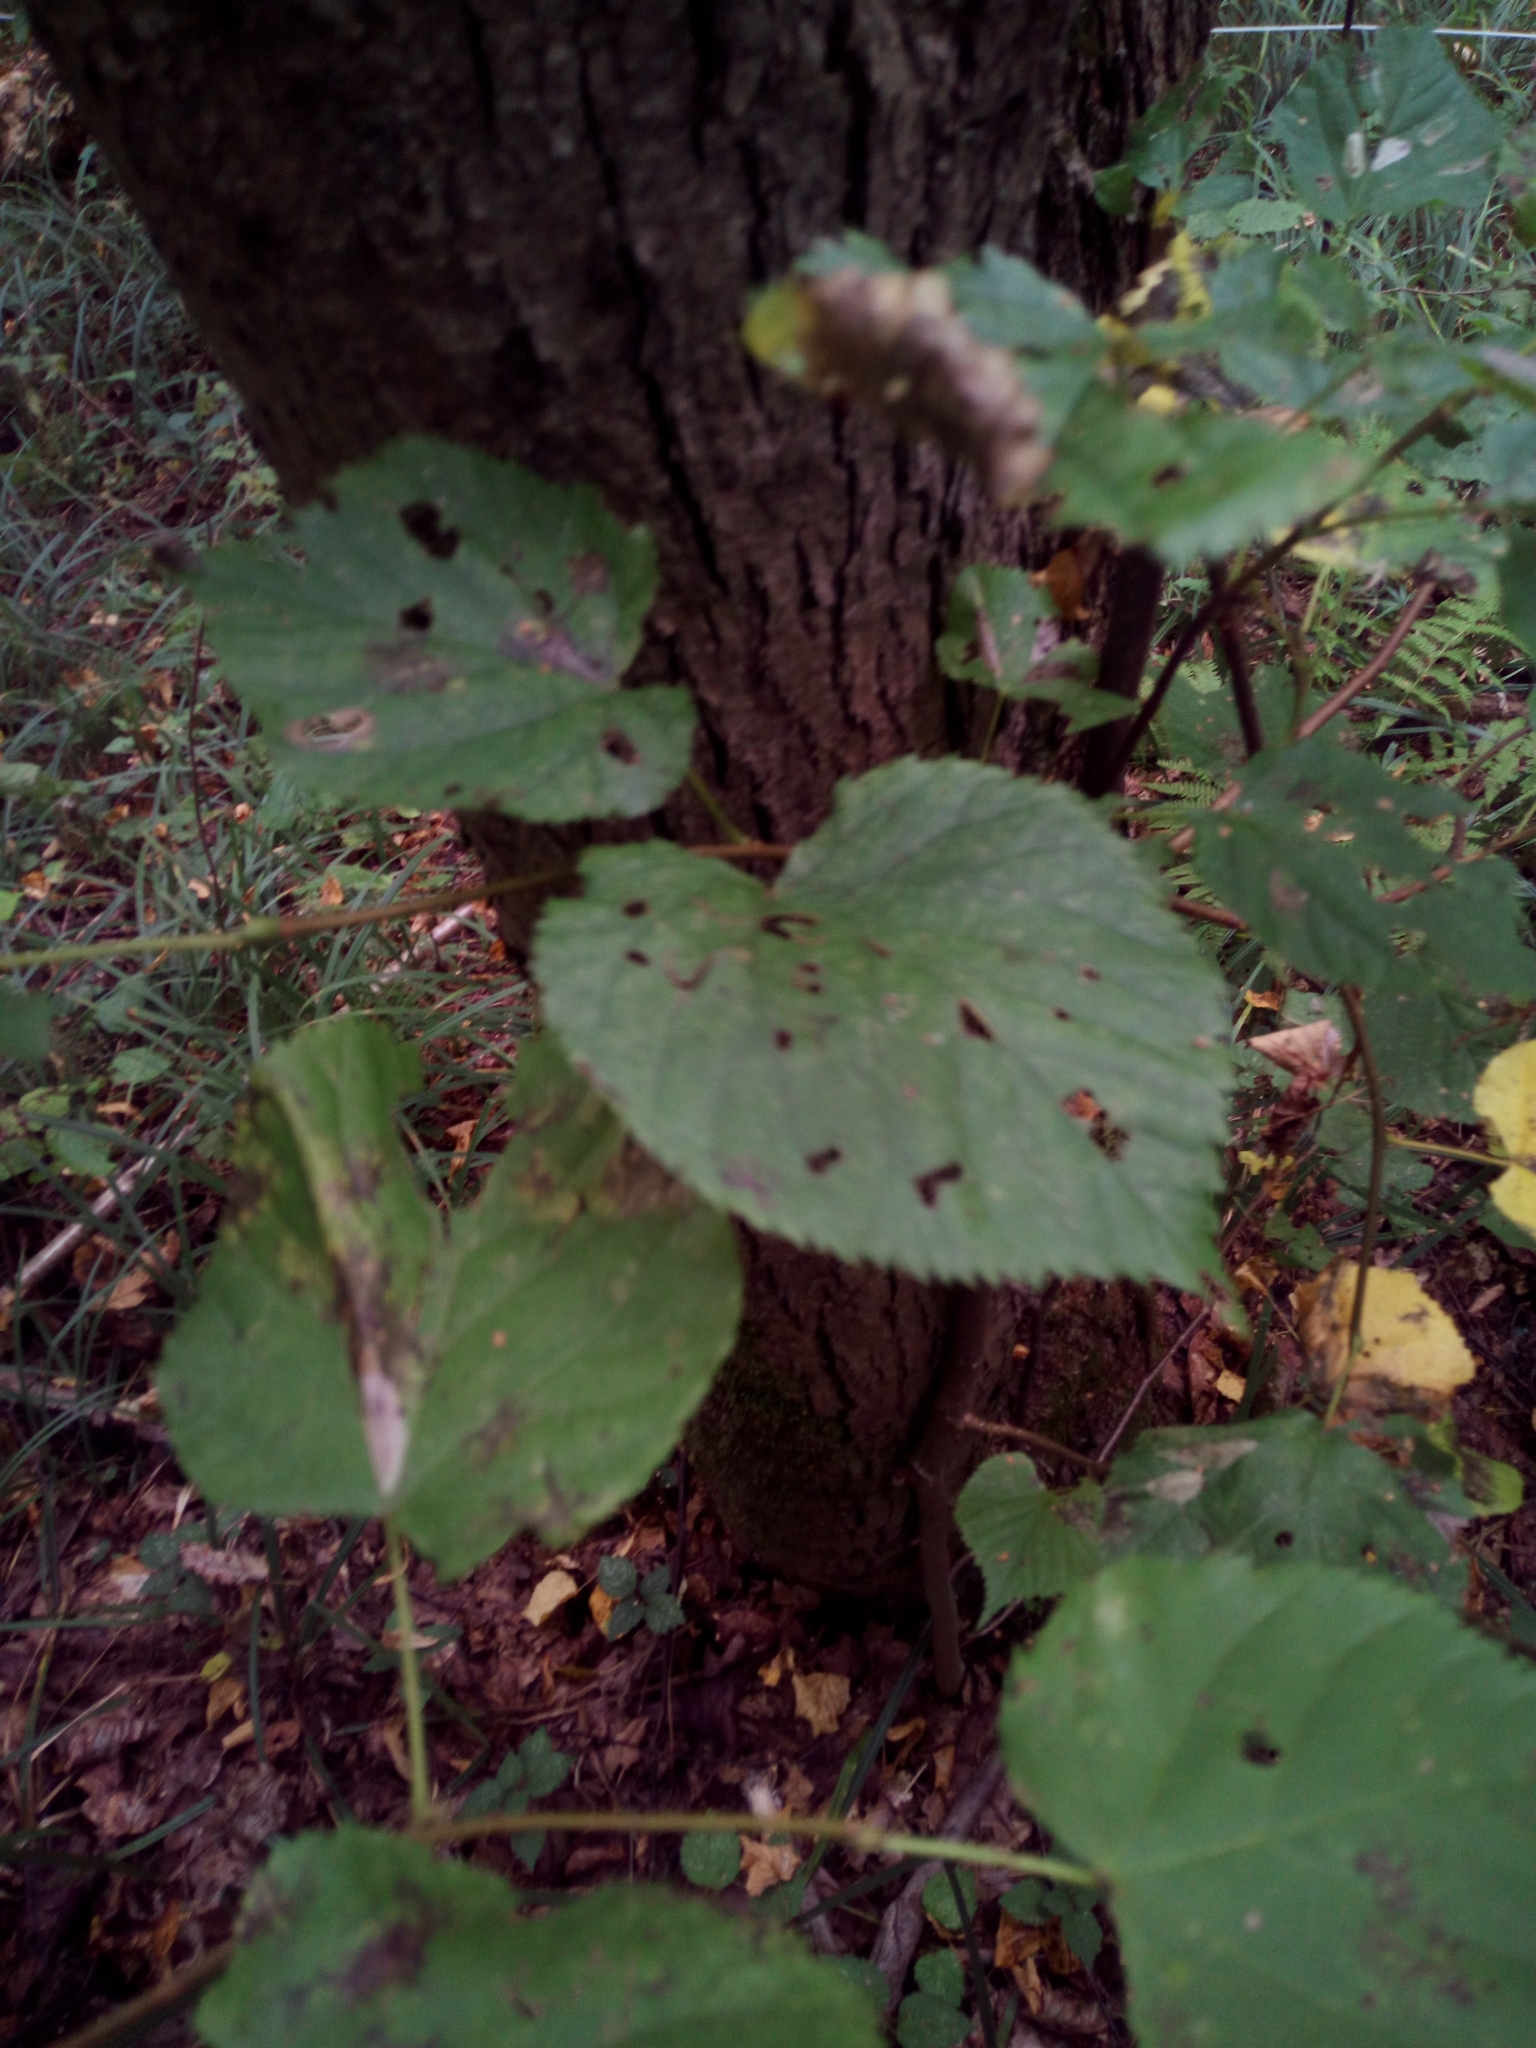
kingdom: Plantae
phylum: Tracheophyta
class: Magnoliopsida
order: Malvales
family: Malvaceae
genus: Tilia
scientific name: Tilia cordata
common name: Small-leaved lime
